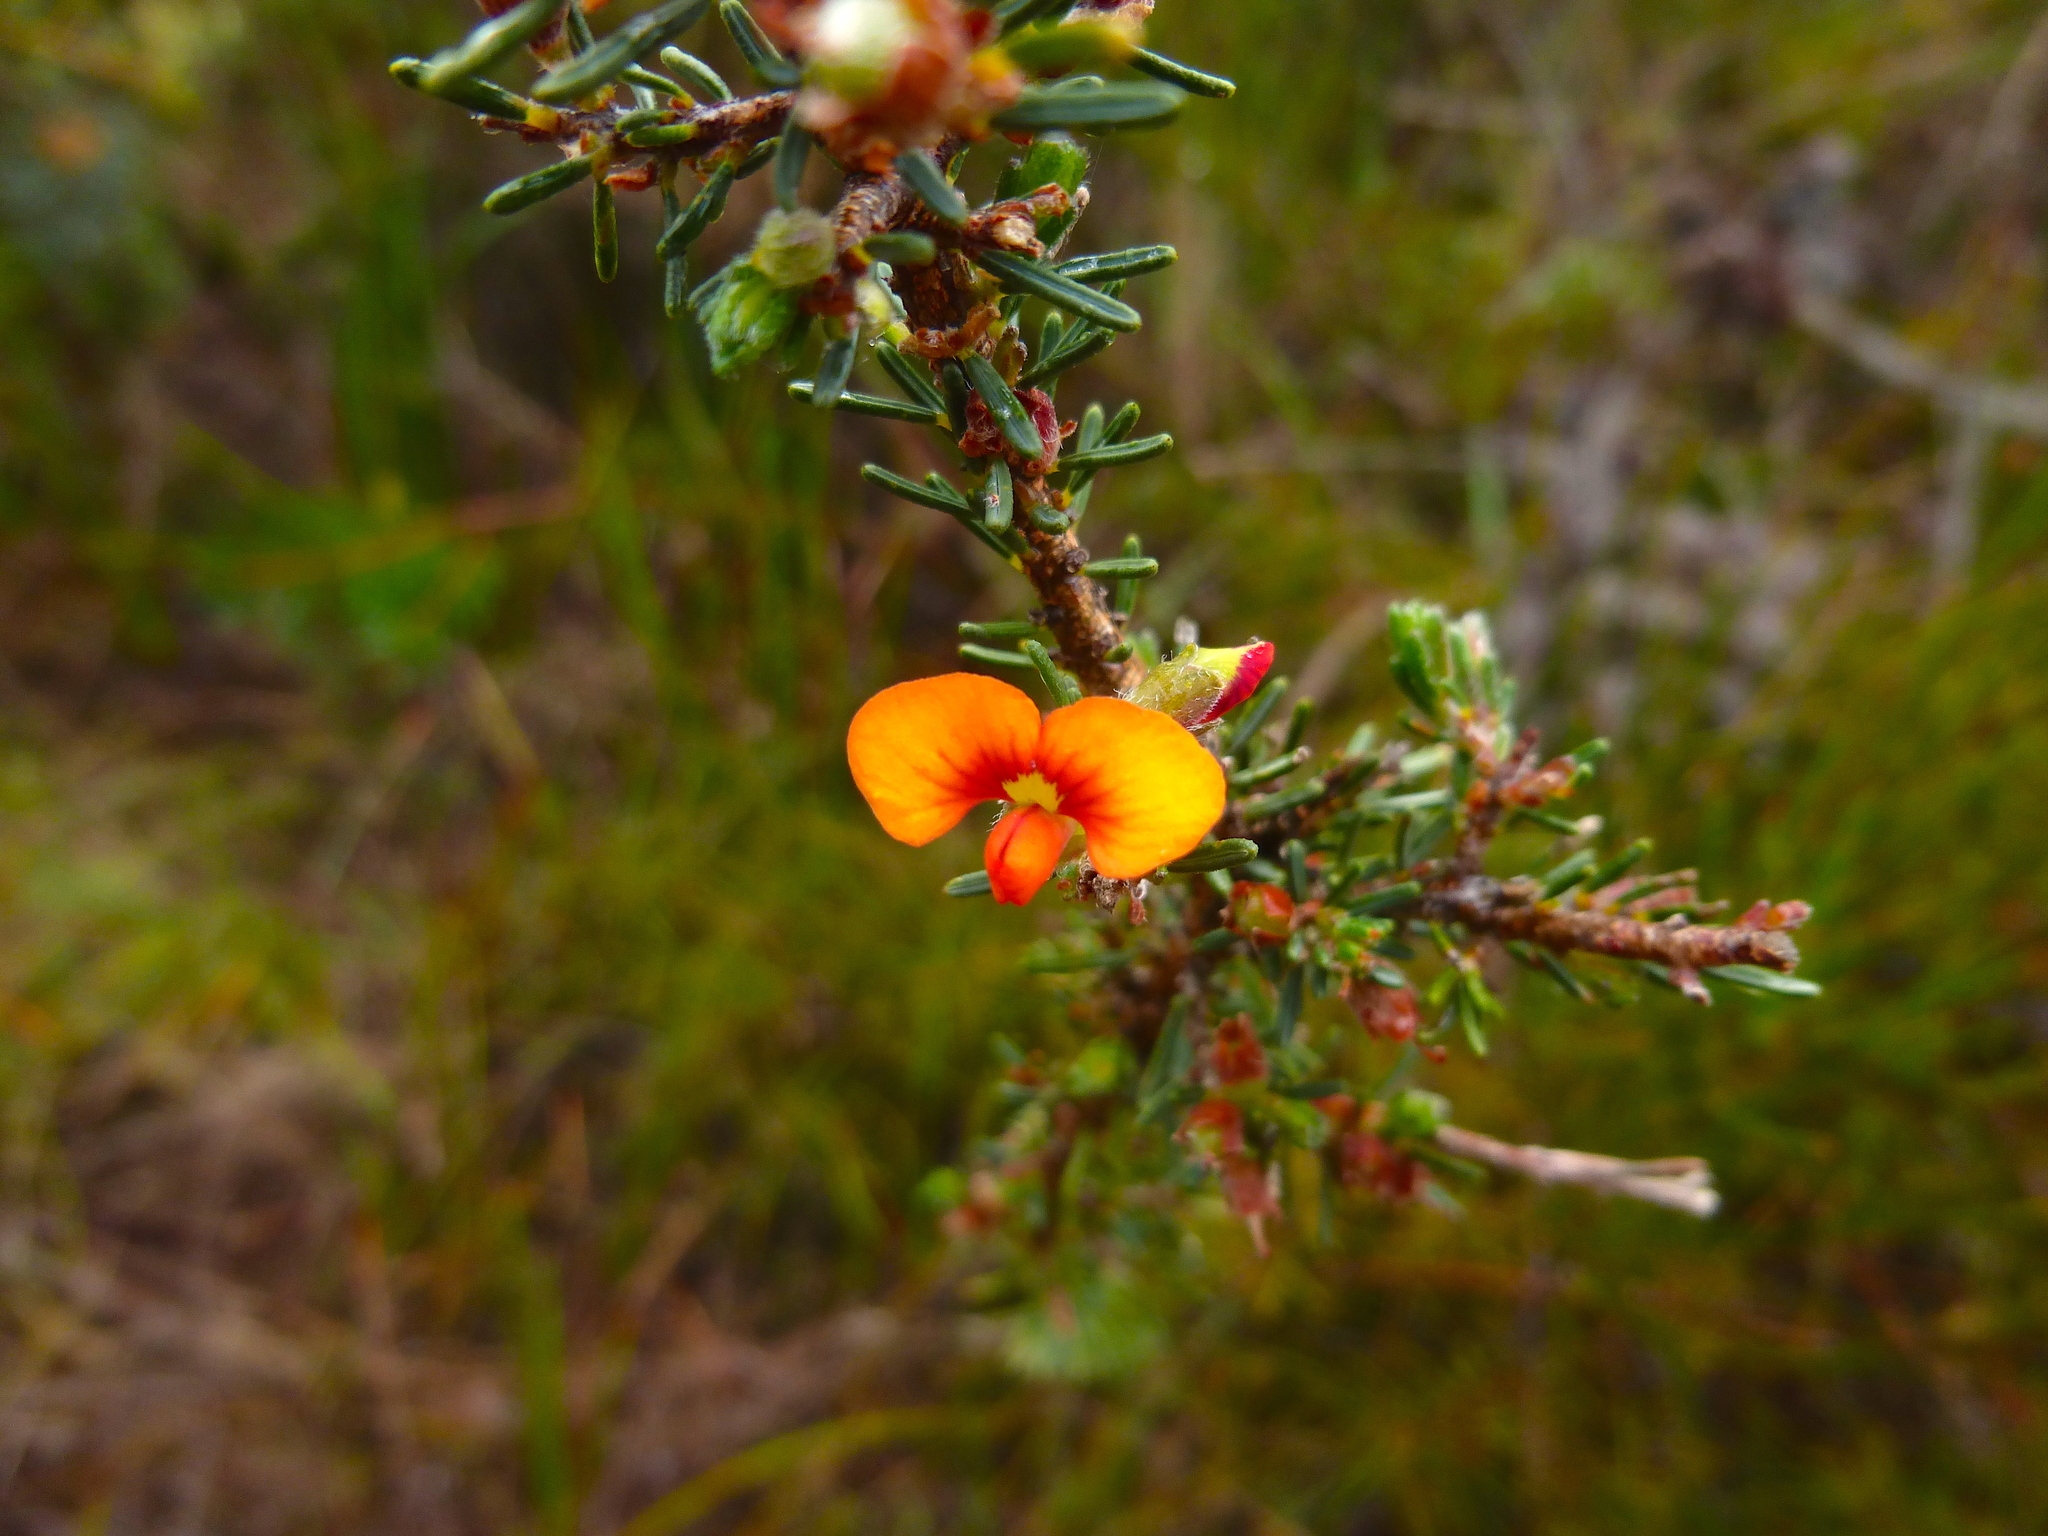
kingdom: Plantae
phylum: Tracheophyta
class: Magnoliopsida
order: Fabales
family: Fabaceae
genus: Dillwynia
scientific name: Dillwynia sericea
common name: Showy parrot-pea
